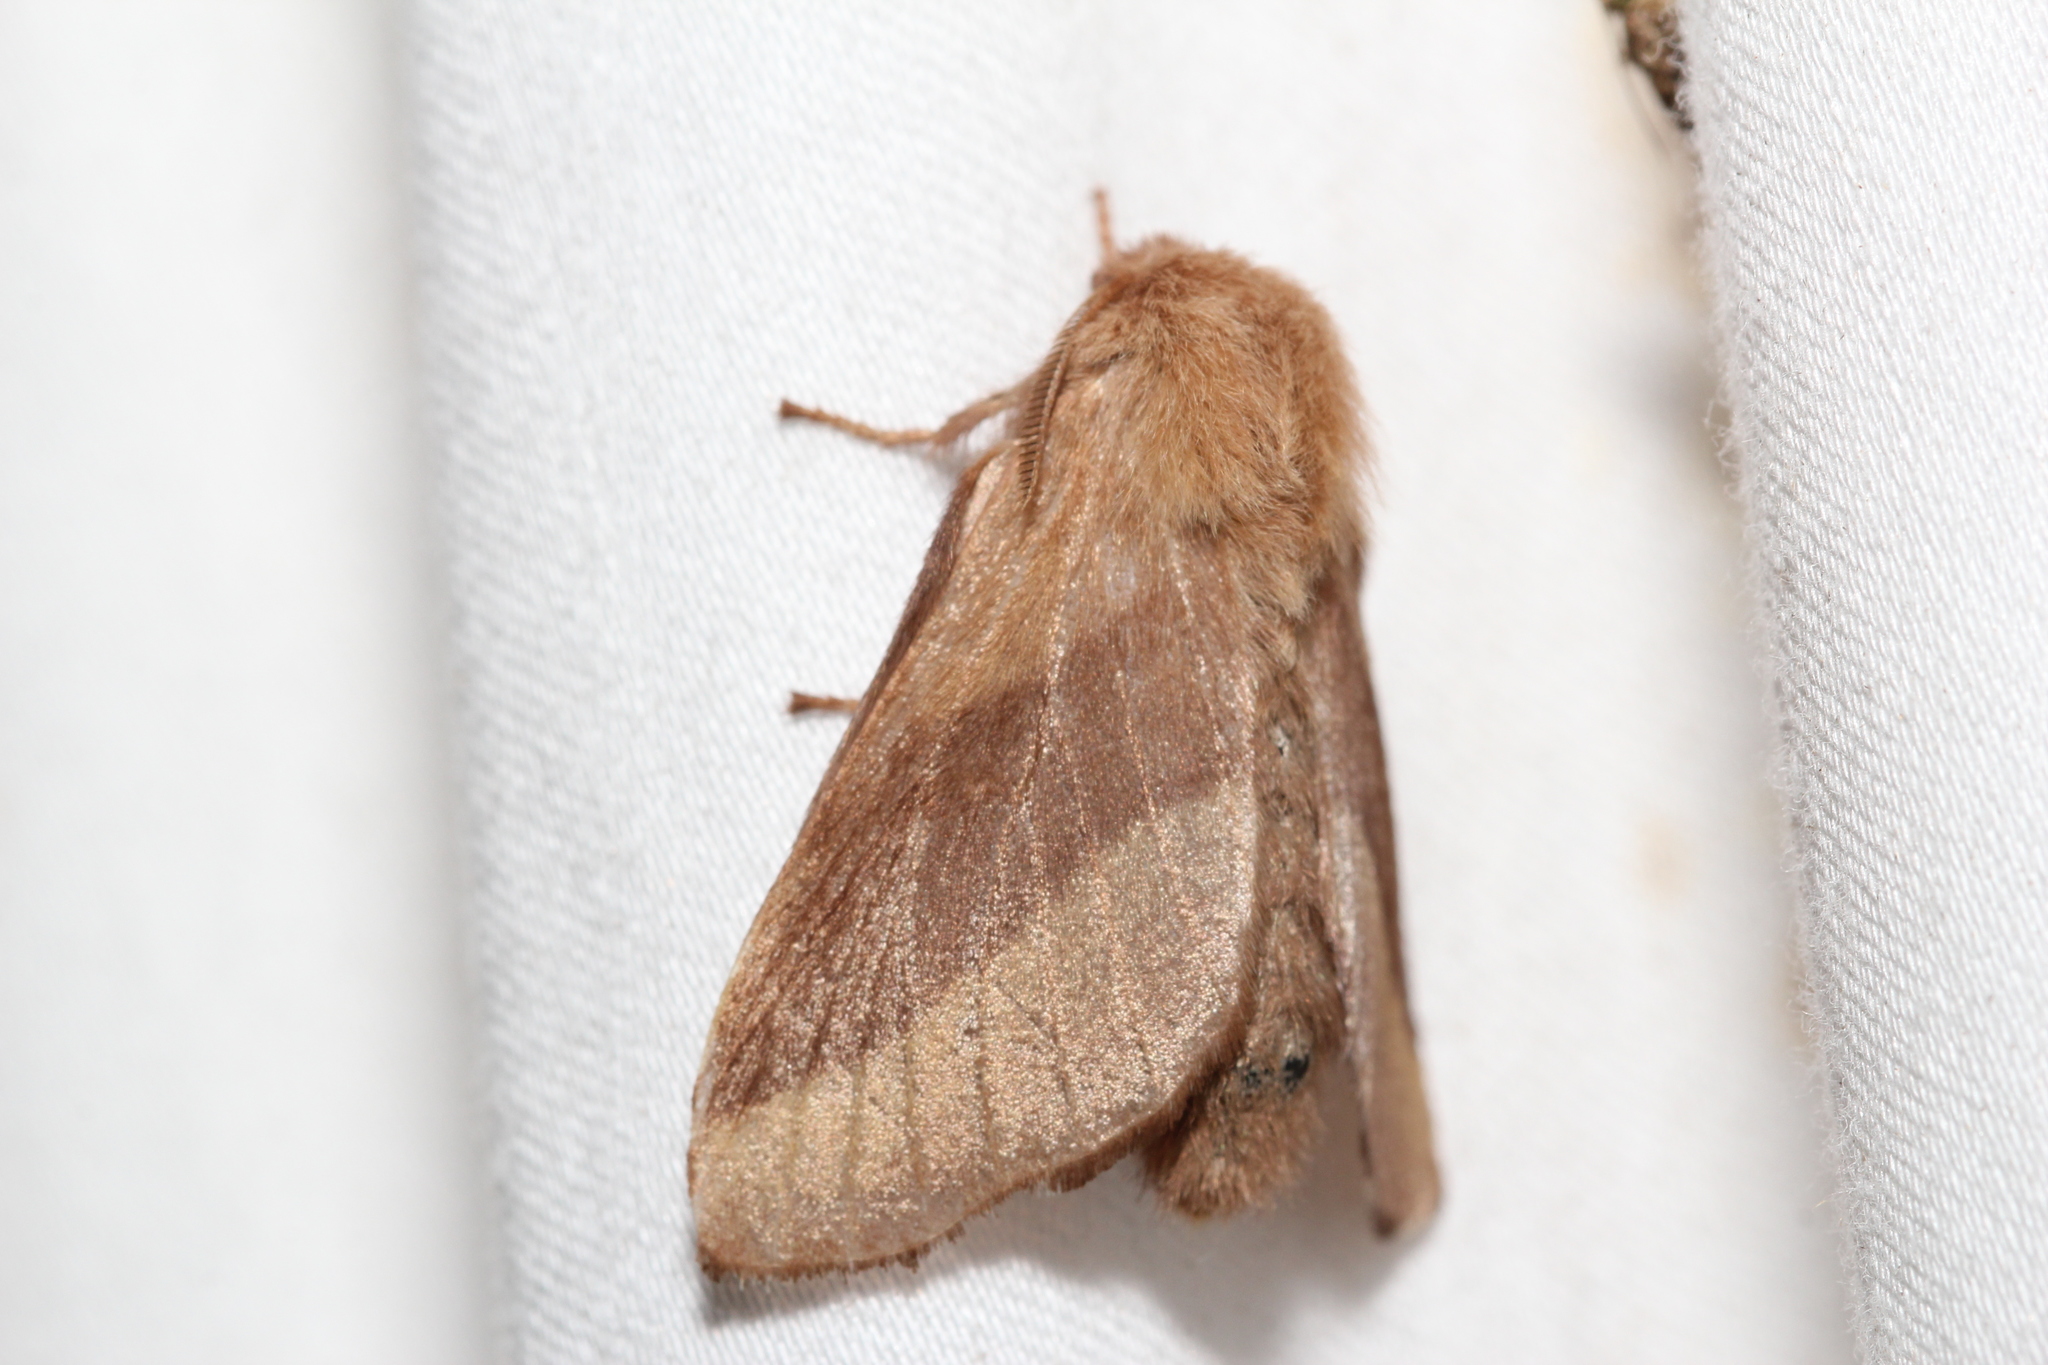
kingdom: Animalia
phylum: Arthropoda
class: Insecta
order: Lepidoptera
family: Lasiocampidae
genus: Malacosoma
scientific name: Malacosoma disstria
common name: Forest tent caterpillar
